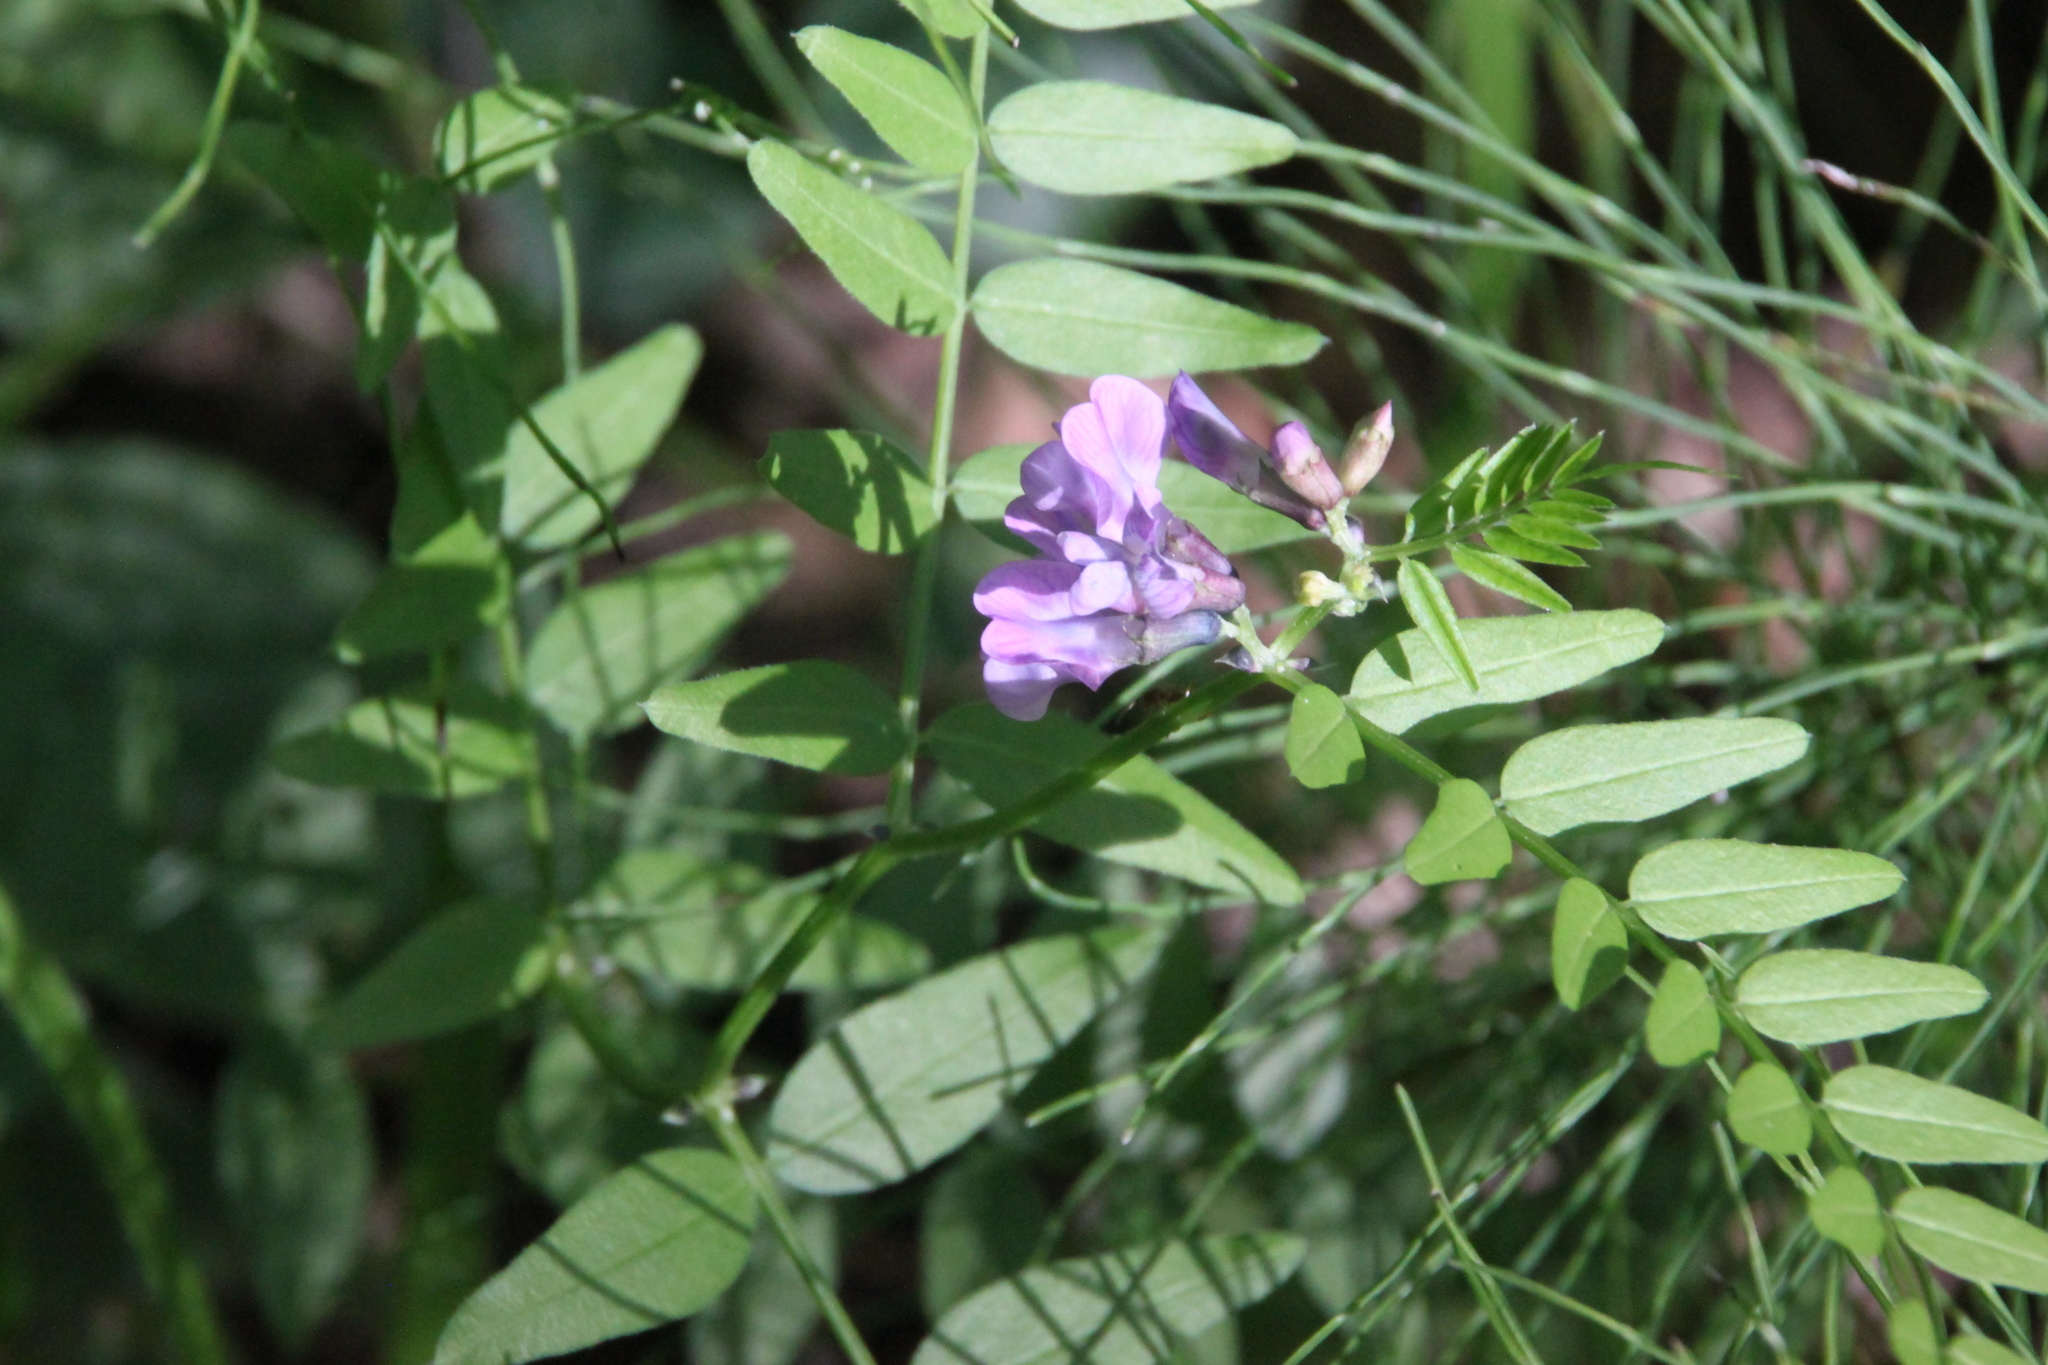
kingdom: Plantae
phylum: Tracheophyta
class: Magnoliopsida
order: Fabales
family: Fabaceae
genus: Vicia
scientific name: Vicia sepium
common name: Bush vetch
